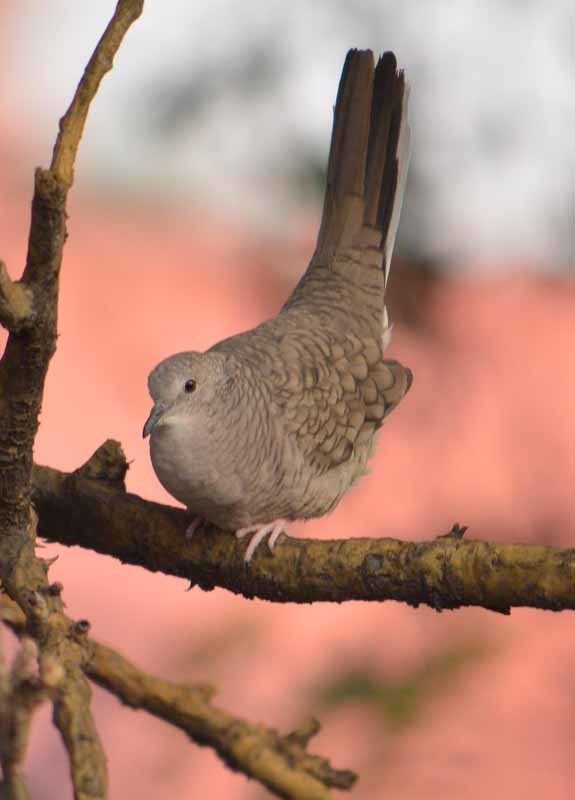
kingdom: Animalia
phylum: Chordata
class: Aves
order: Columbiformes
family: Columbidae
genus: Columbina
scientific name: Columbina inca
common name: Inca dove
